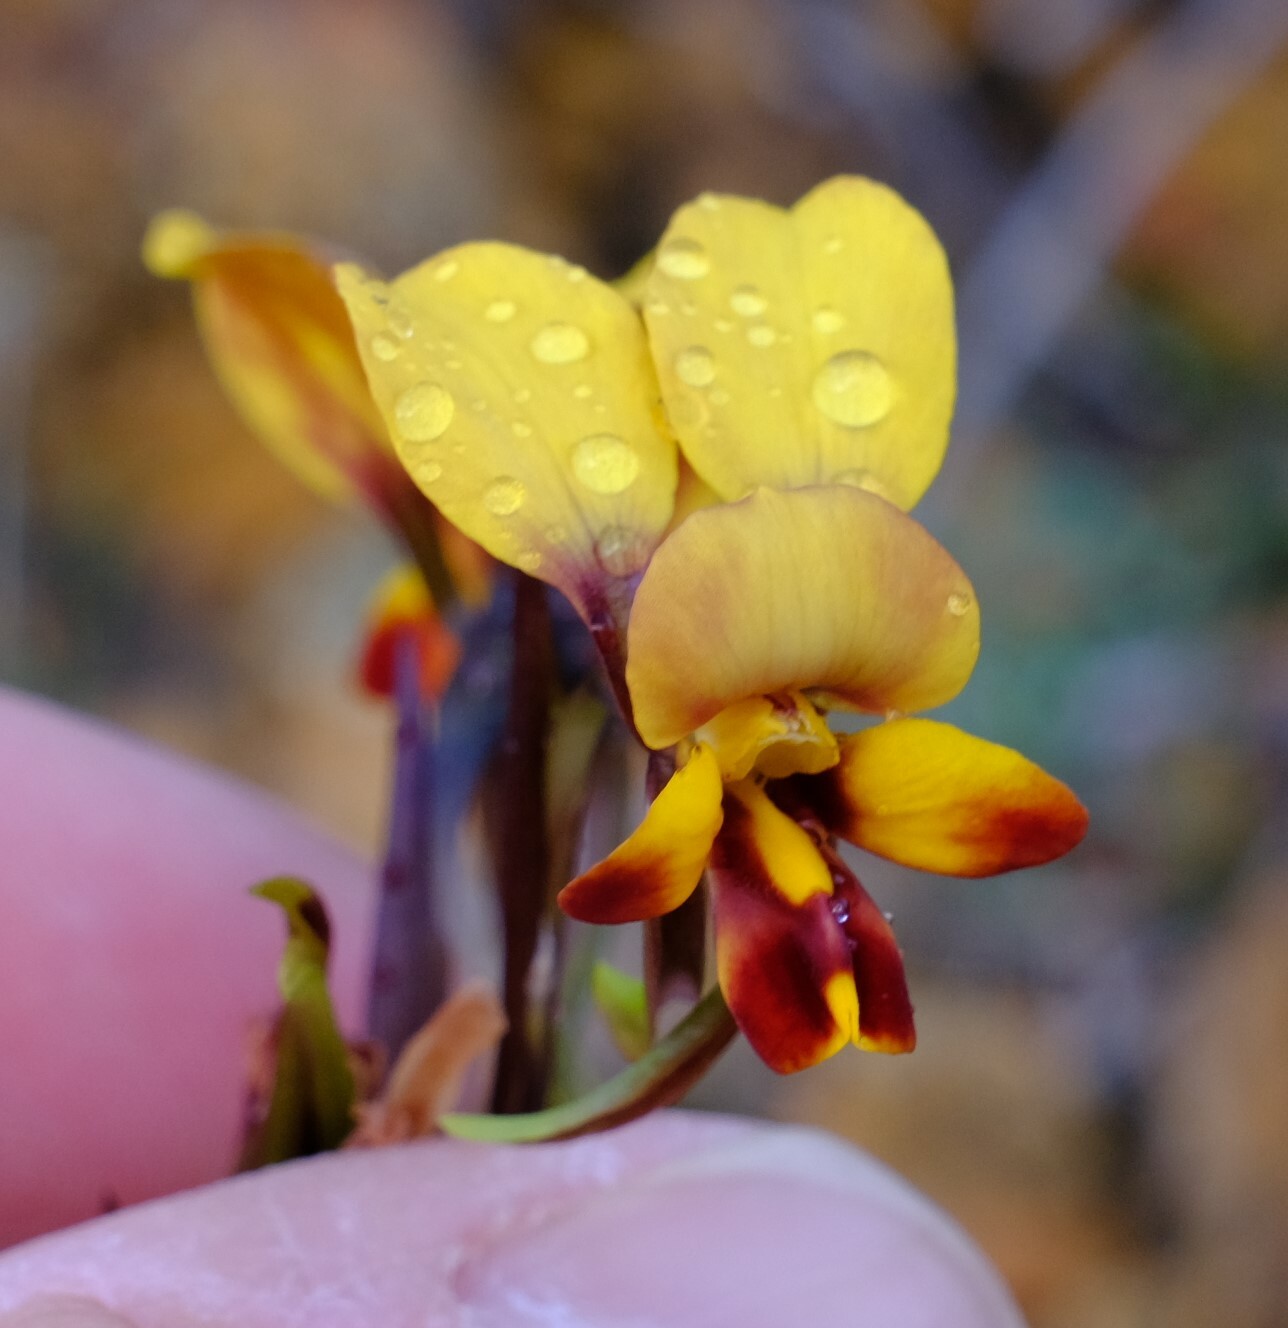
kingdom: Plantae
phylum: Tracheophyta
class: Liliopsida
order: Asparagales
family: Orchidaceae
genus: Diuris
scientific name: Diuris perialla
